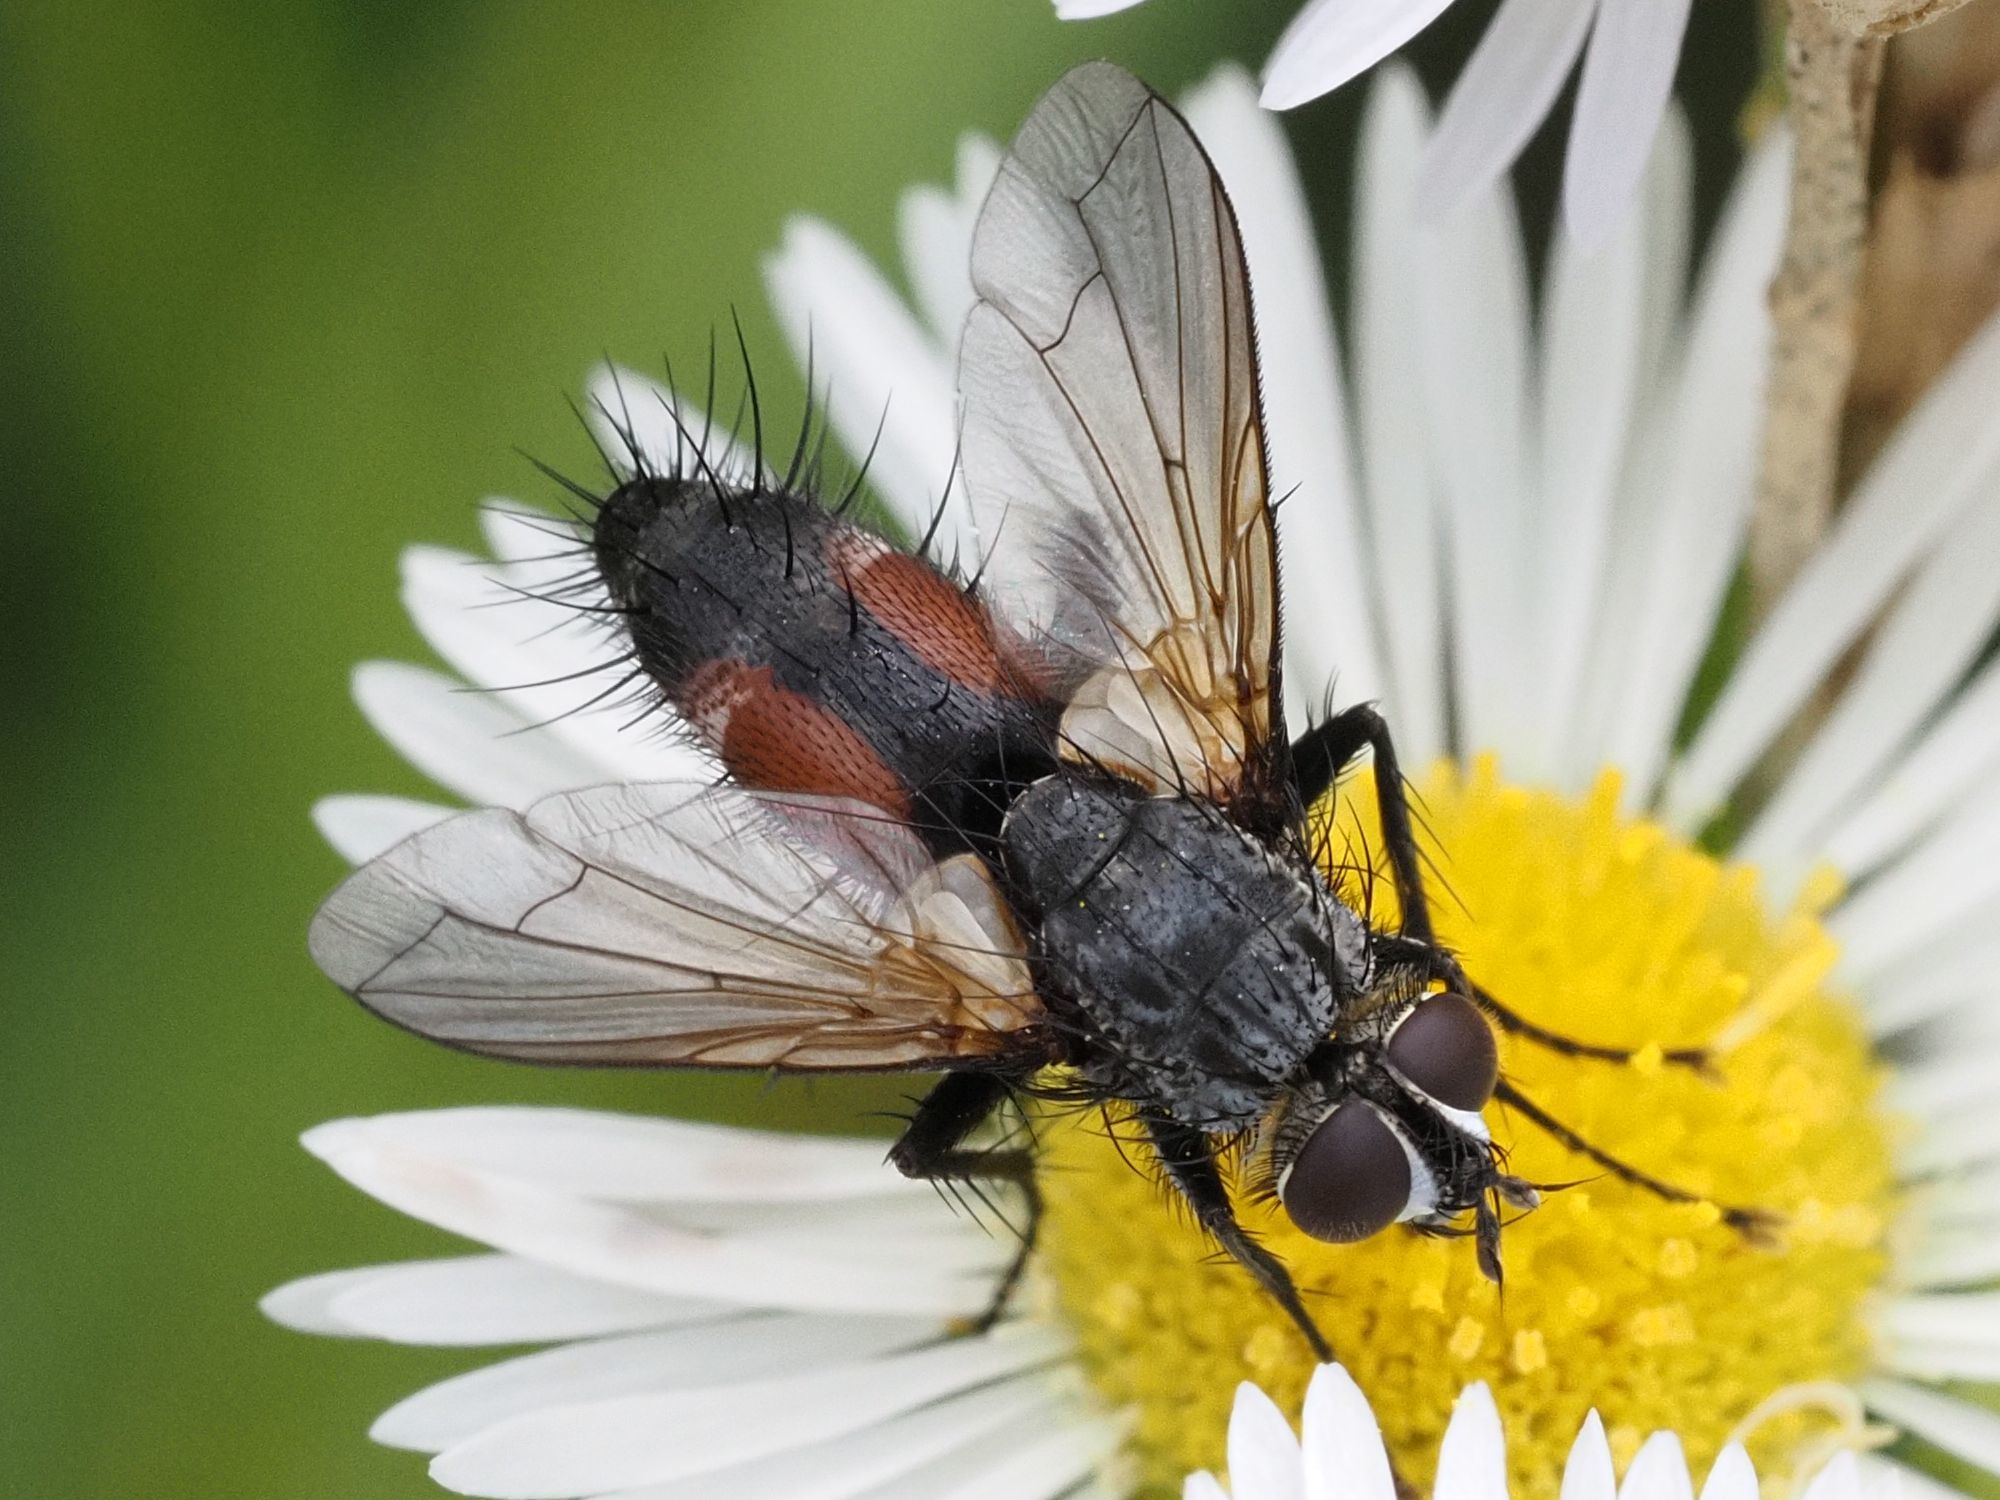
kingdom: Animalia
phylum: Arthropoda
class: Insecta
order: Diptera
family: Tachinidae
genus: Eriothrix
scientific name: Eriothrix rufomaculatus
